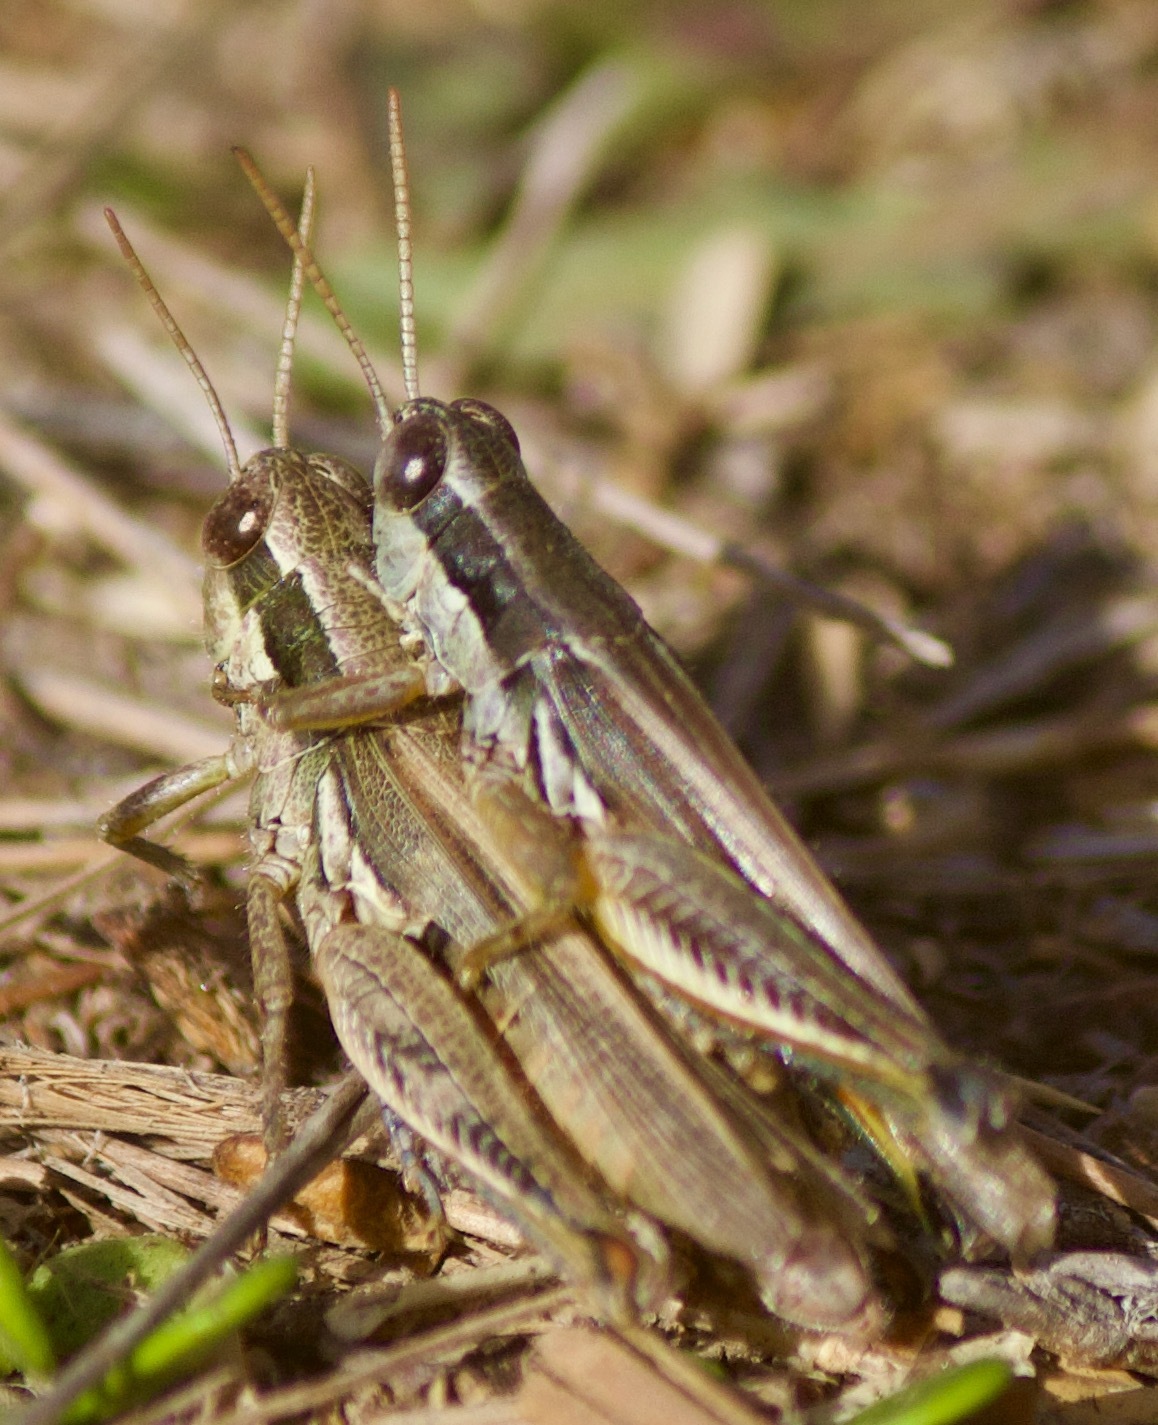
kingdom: Animalia
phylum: Arthropoda
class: Insecta
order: Orthoptera
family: Acrididae
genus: Dichroplus
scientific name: Dichroplus elongatus
